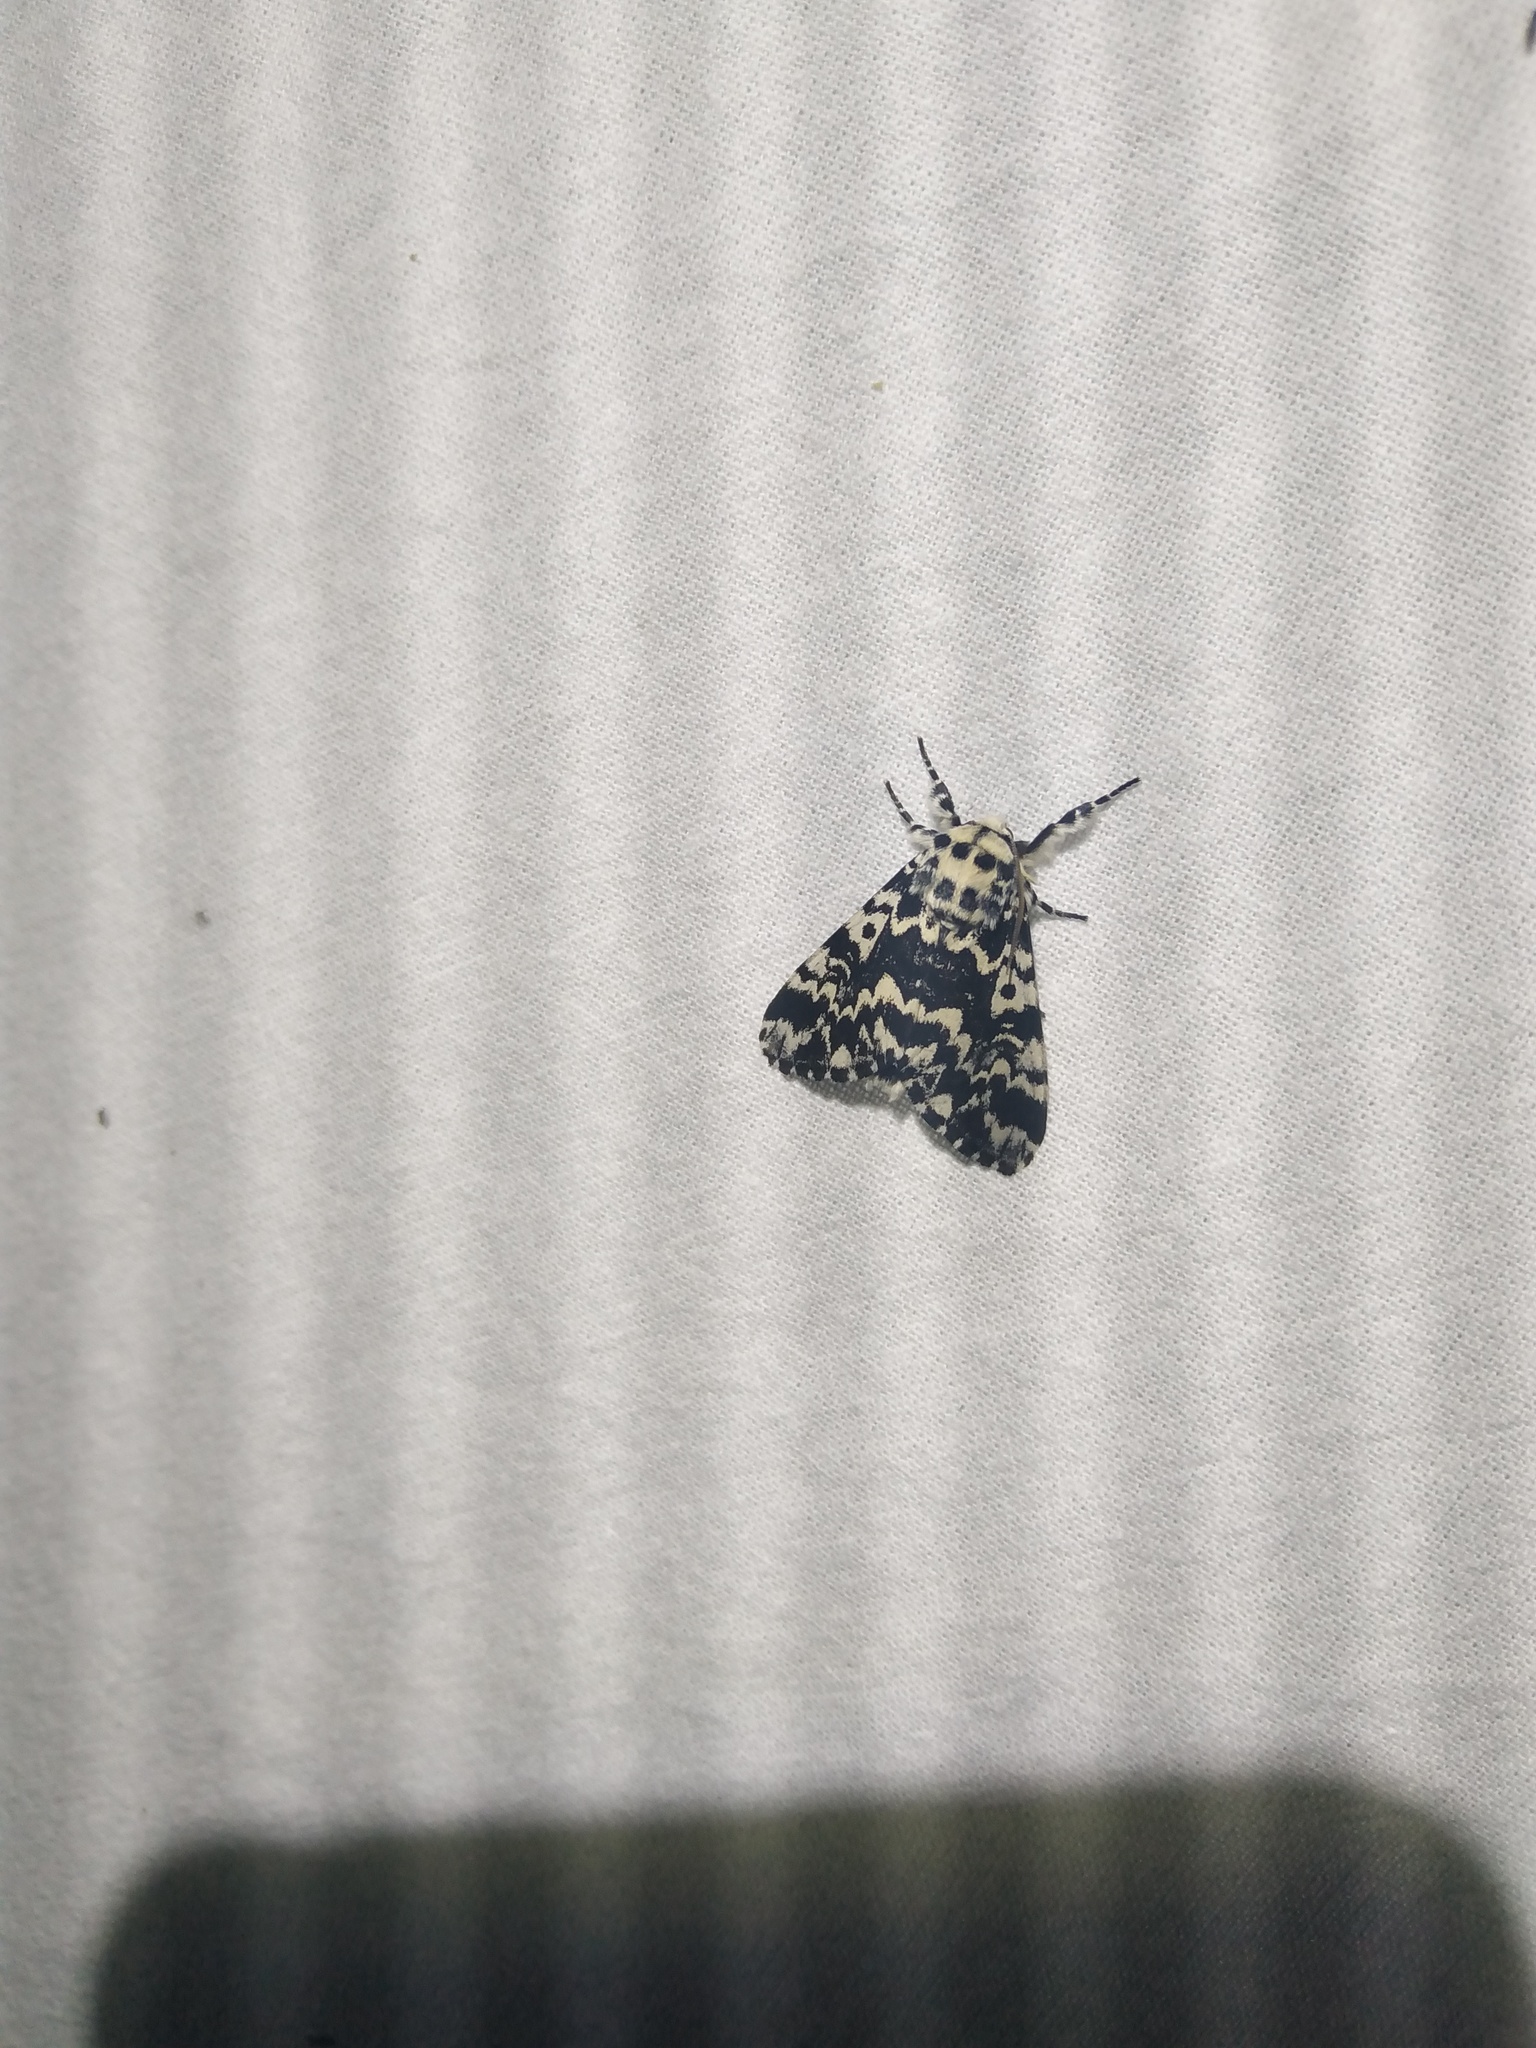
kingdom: Animalia
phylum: Arthropoda
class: Insecta
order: Lepidoptera
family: Erebidae
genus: Lymantria
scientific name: Lymantria monacha
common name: Black arches
